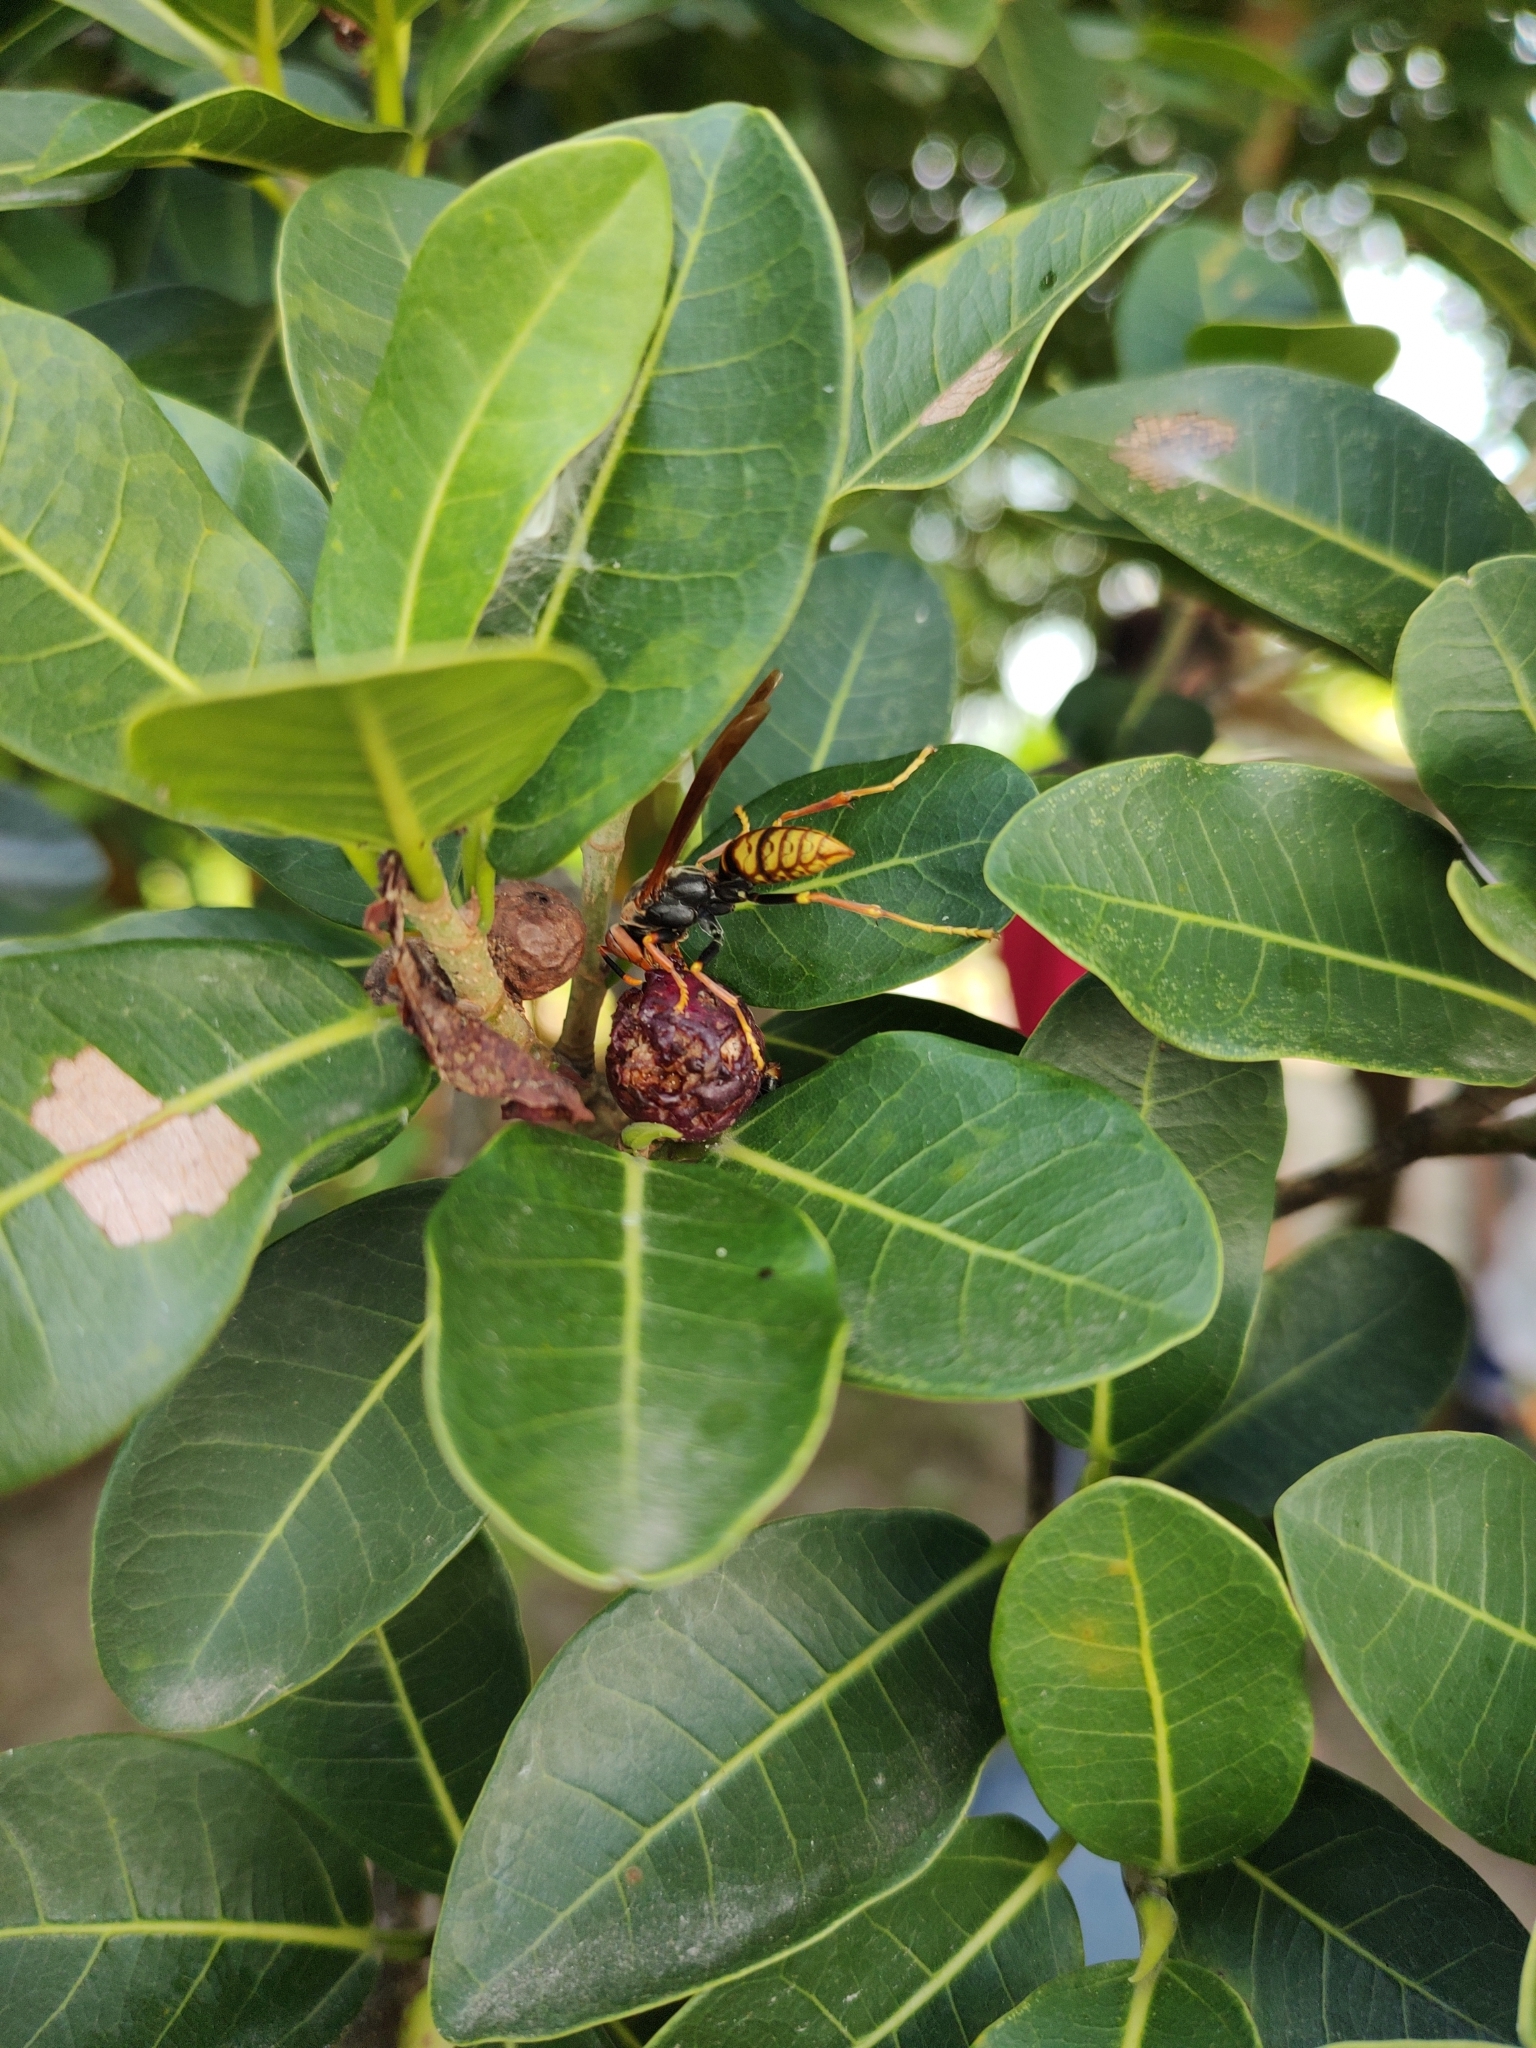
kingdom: Animalia
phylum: Arthropoda
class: Insecta
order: Hymenoptera
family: Eumenidae
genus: Polistes
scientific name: Polistes cavapytiformis
